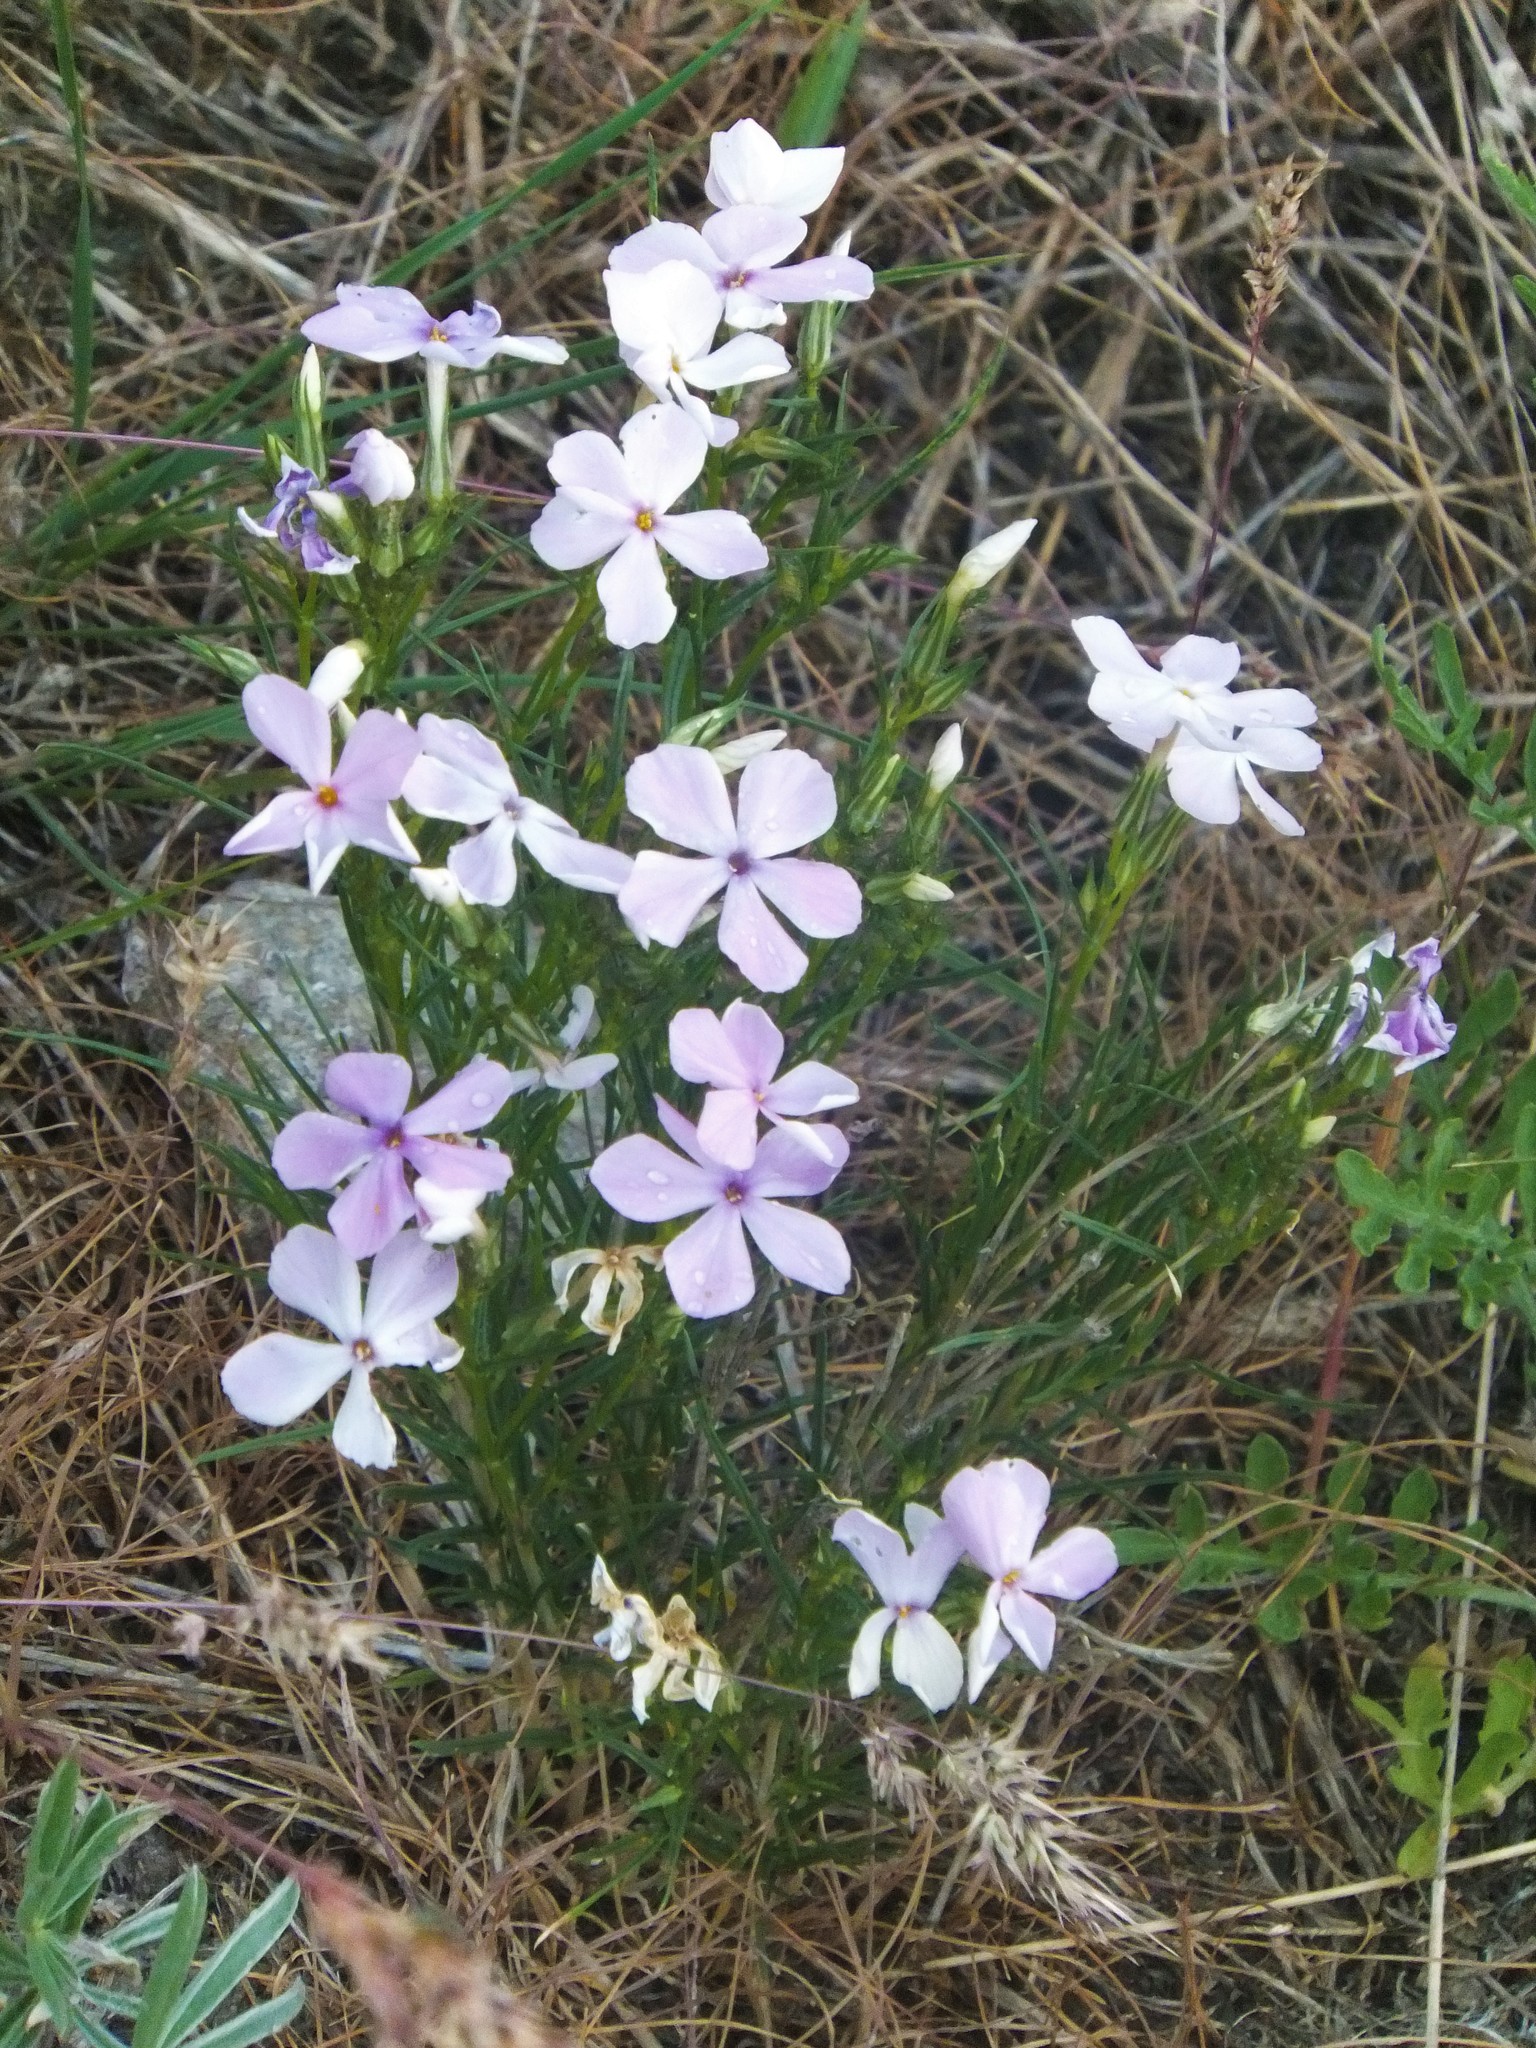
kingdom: Plantae
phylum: Tracheophyta
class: Magnoliopsida
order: Ericales
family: Polemoniaceae
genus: Phlox
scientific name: Phlox longifolia
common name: Longleaf phlox
